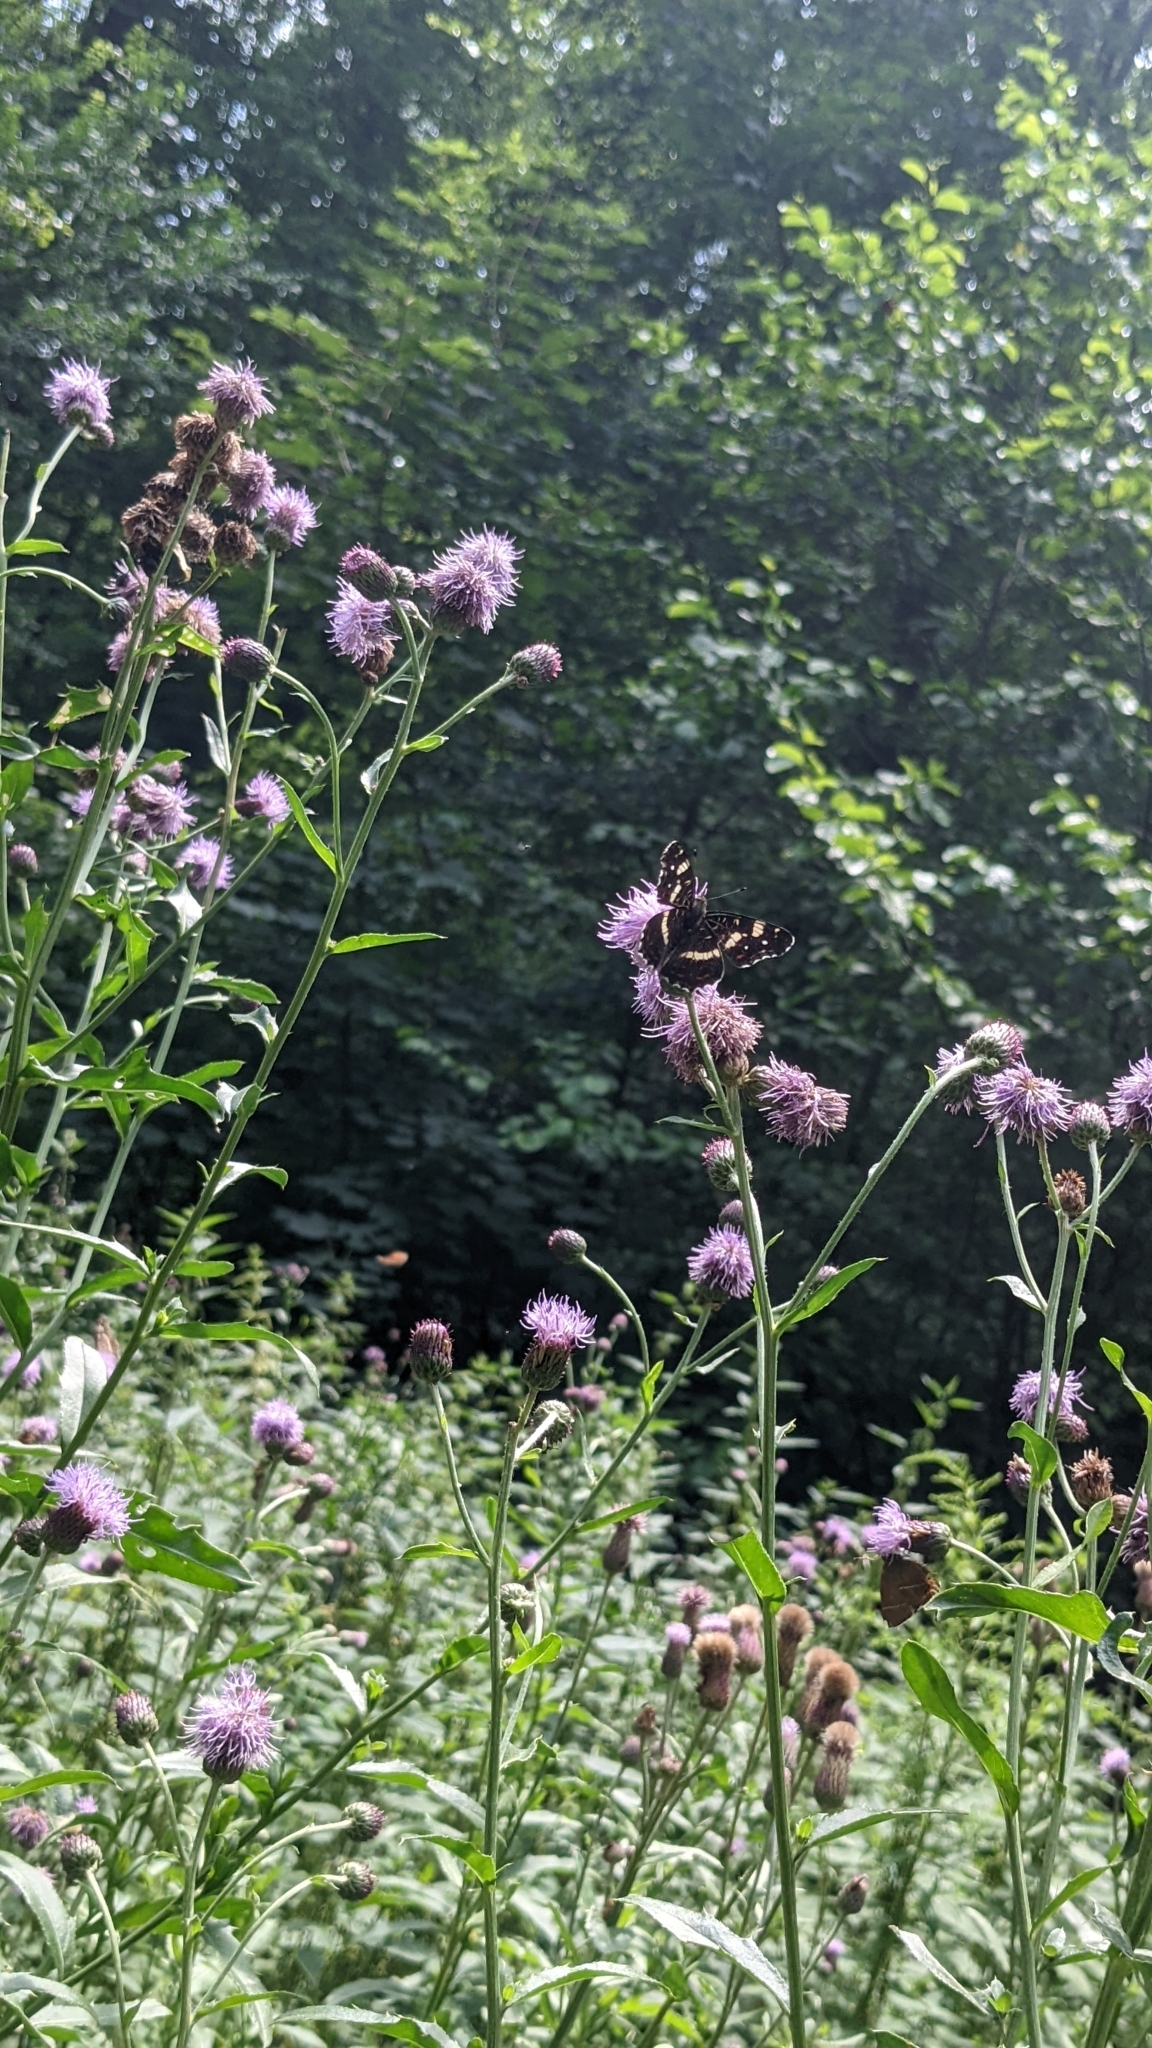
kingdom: Animalia
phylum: Arthropoda
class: Insecta
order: Lepidoptera
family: Nymphalidae
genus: Araschnia
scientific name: Araschnia levana
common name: Map butterfly
